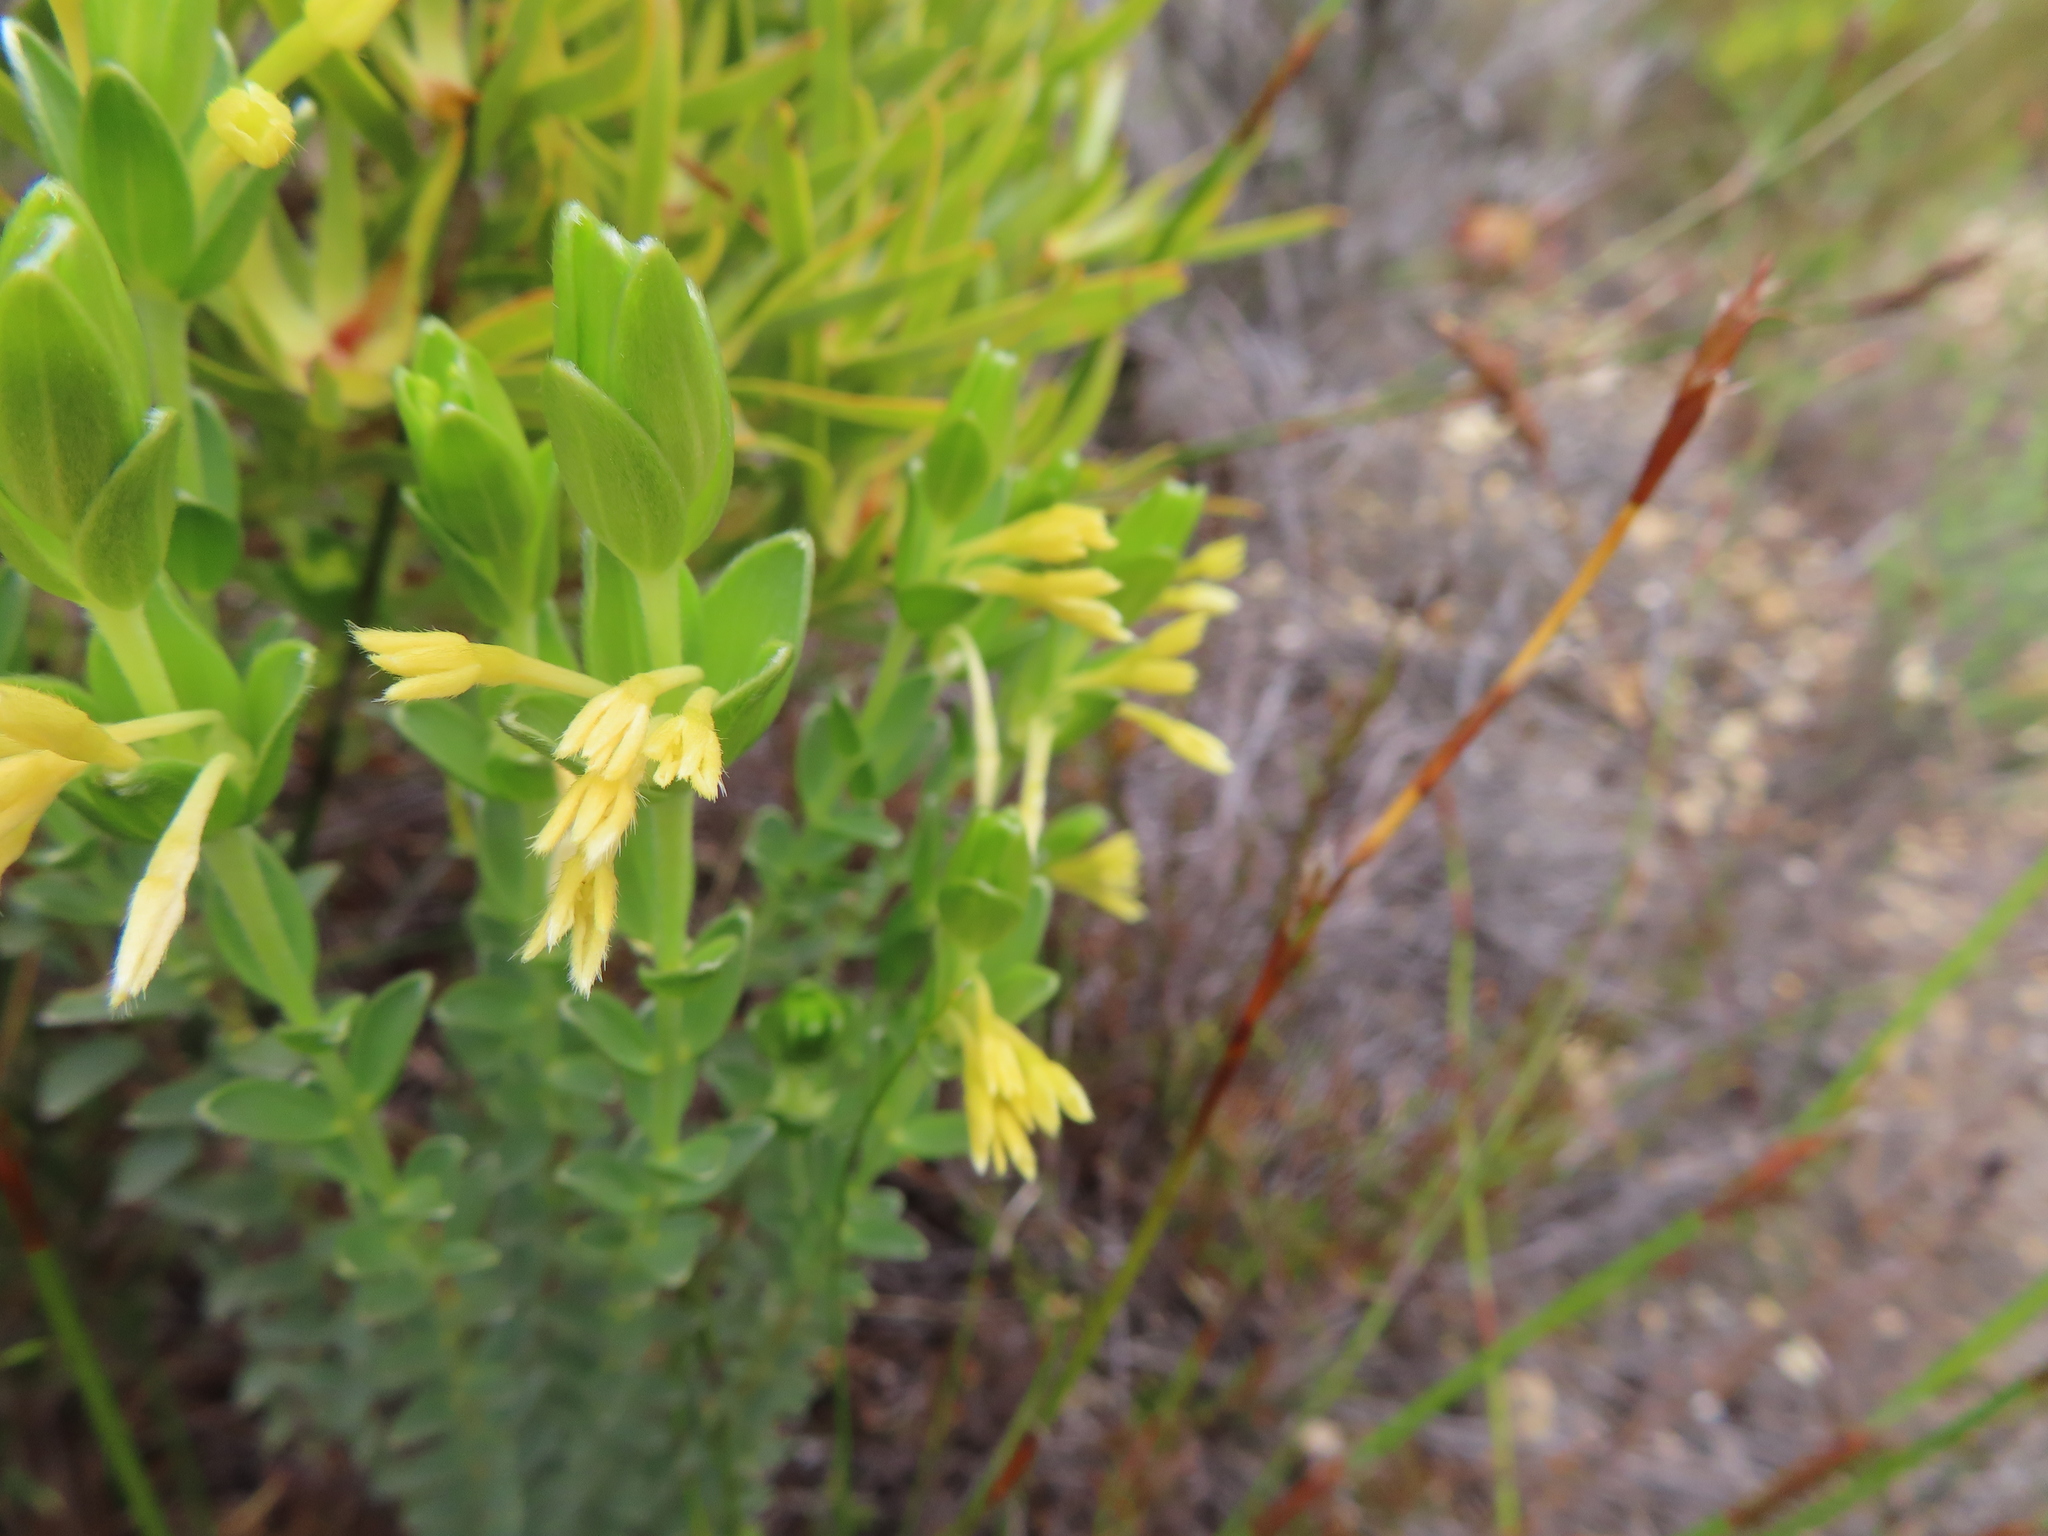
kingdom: Plantae
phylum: Tracheophyta
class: Magnoliopsida
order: Malvales
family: Thymelaeaceae
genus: Gnidia
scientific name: Gnidia anomala
